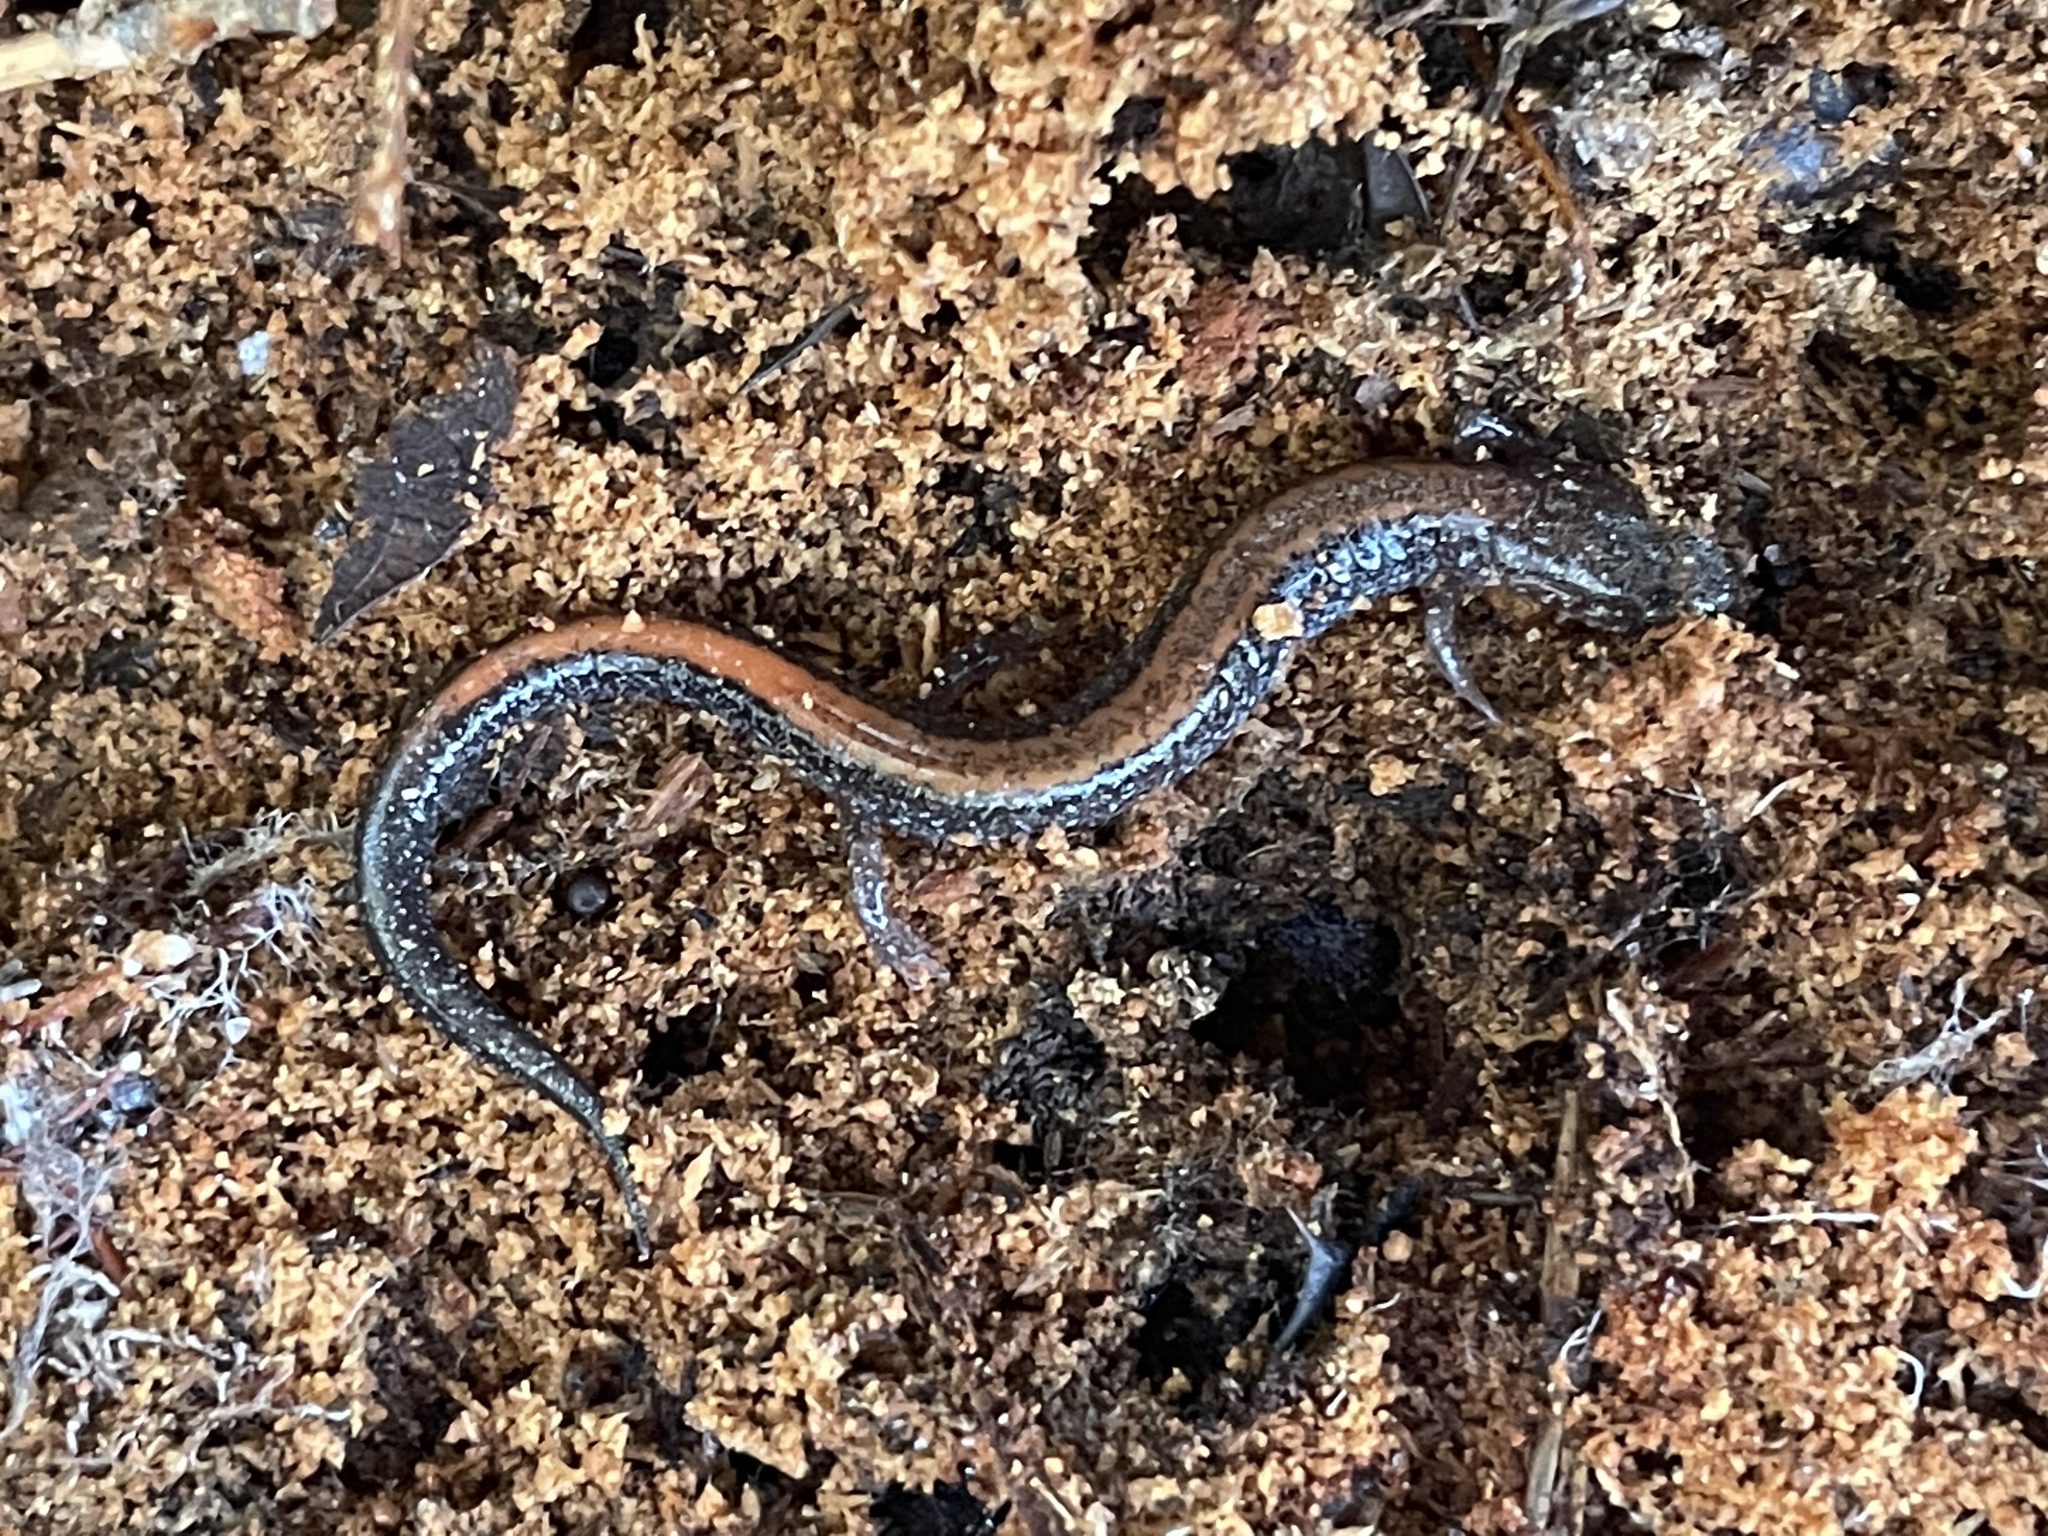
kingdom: Animalia
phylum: Chordata
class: Amphibia
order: Caudata
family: Plethodontidae
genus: Plethodon
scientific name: Plethodon cinereus
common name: Redback salamander
